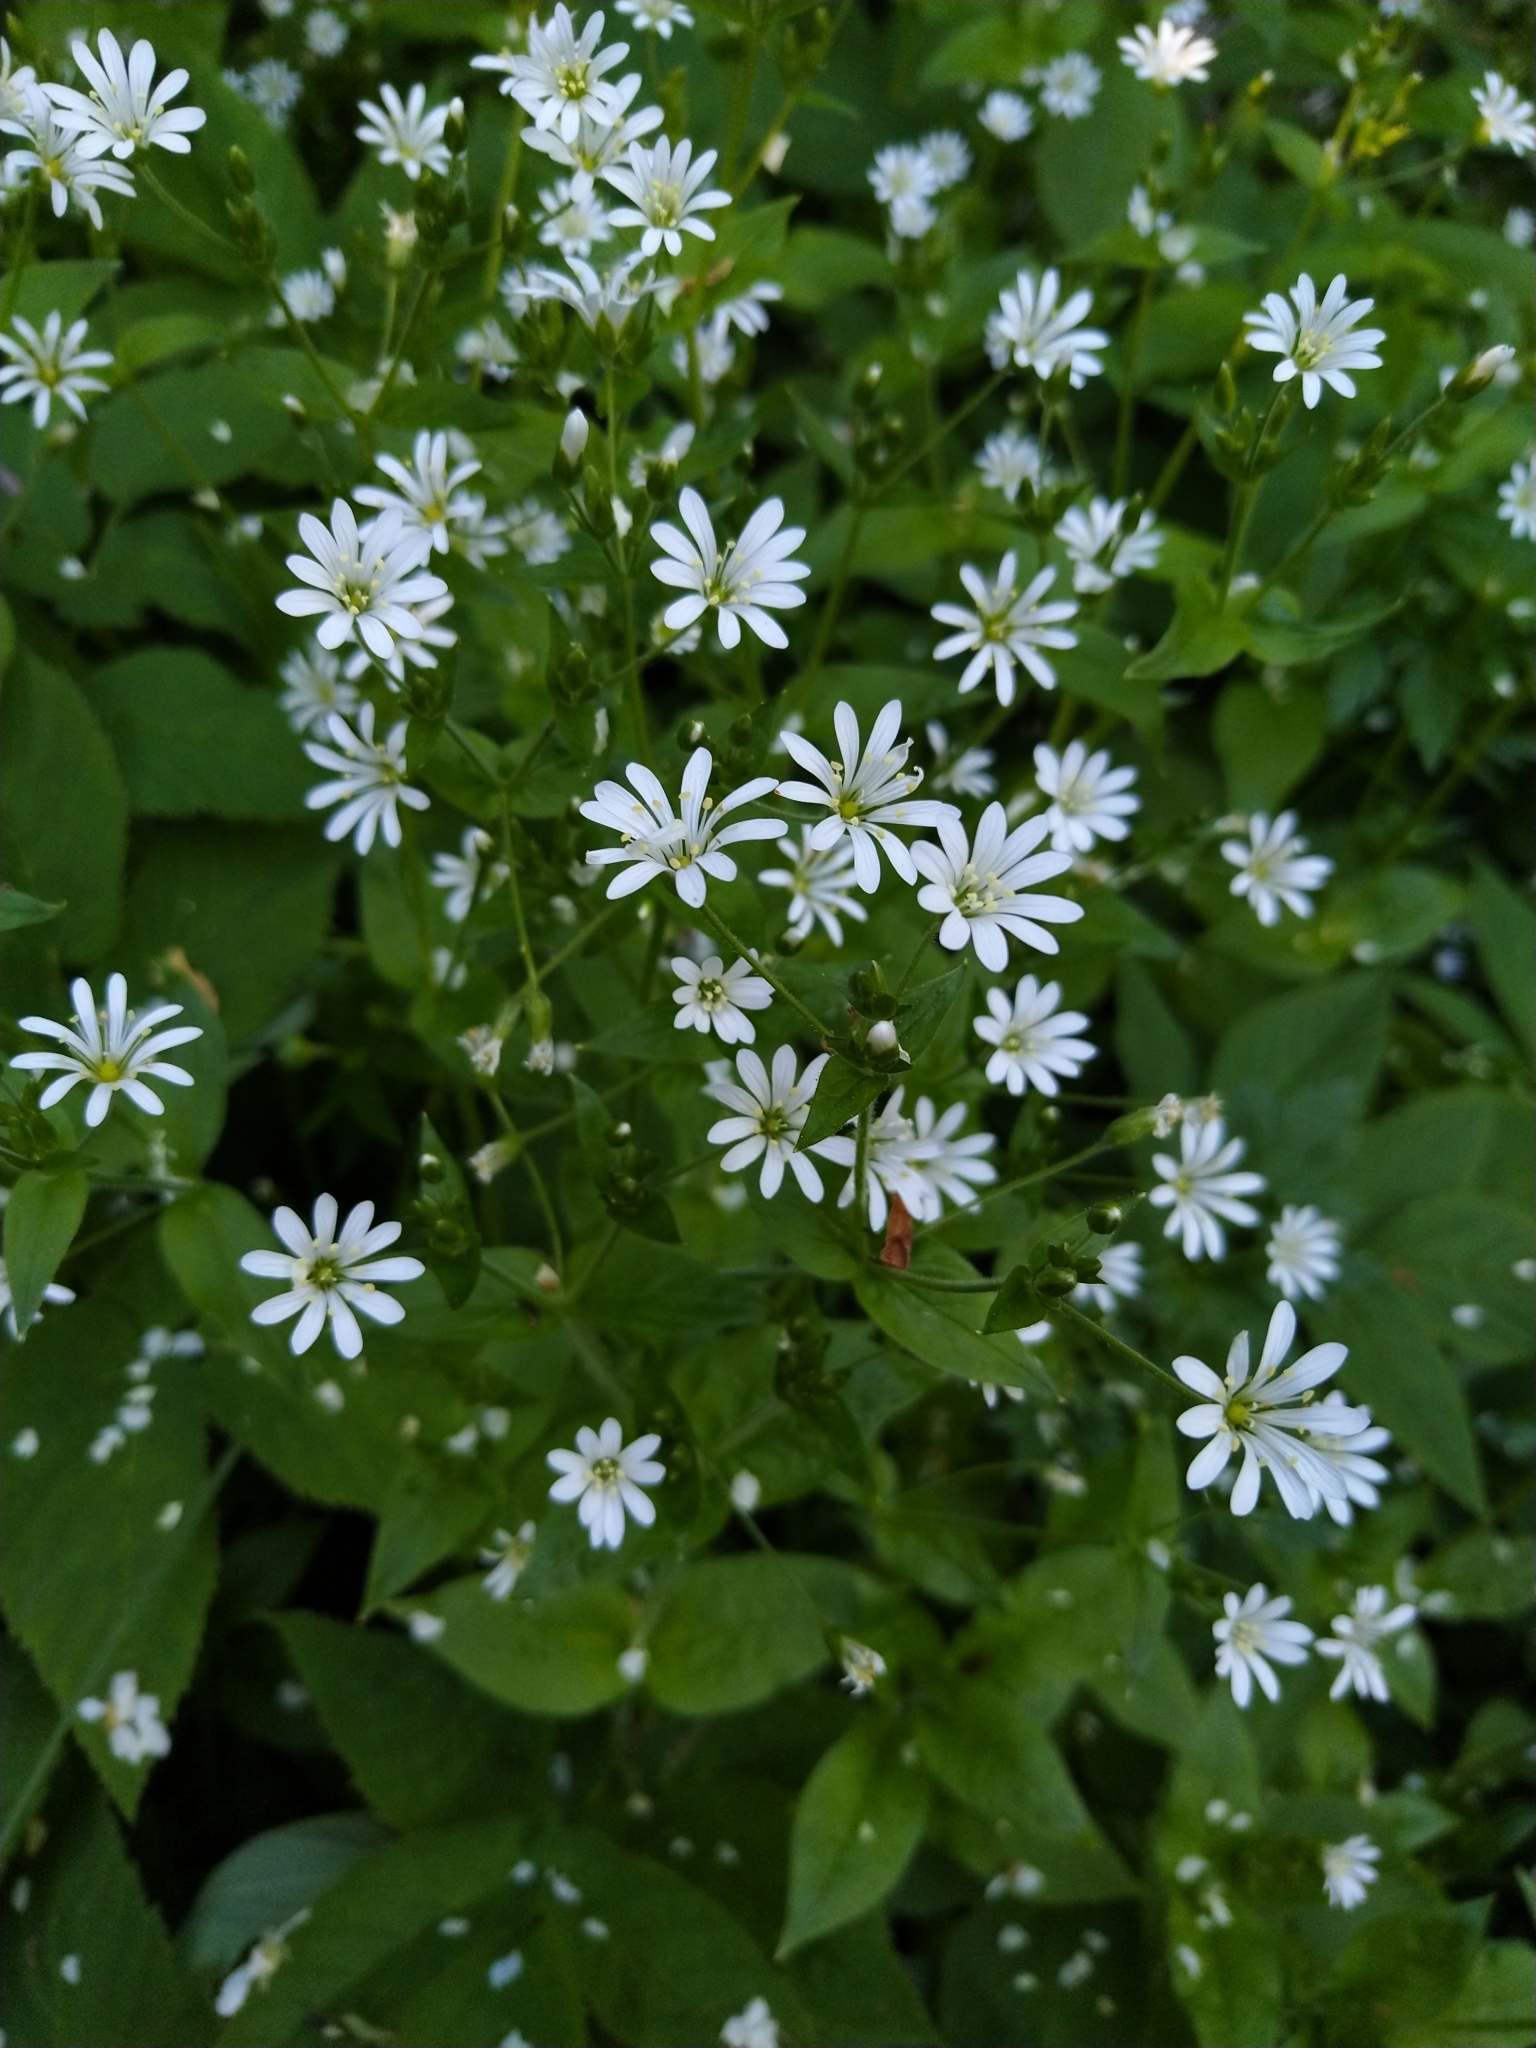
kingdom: Plantae
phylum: Tracheophyta
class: Magnoliopsida
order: Caryophyllales
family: Caryophyllaceae
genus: Stellaria
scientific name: Stellaria nemorum
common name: Wood stitchwort
